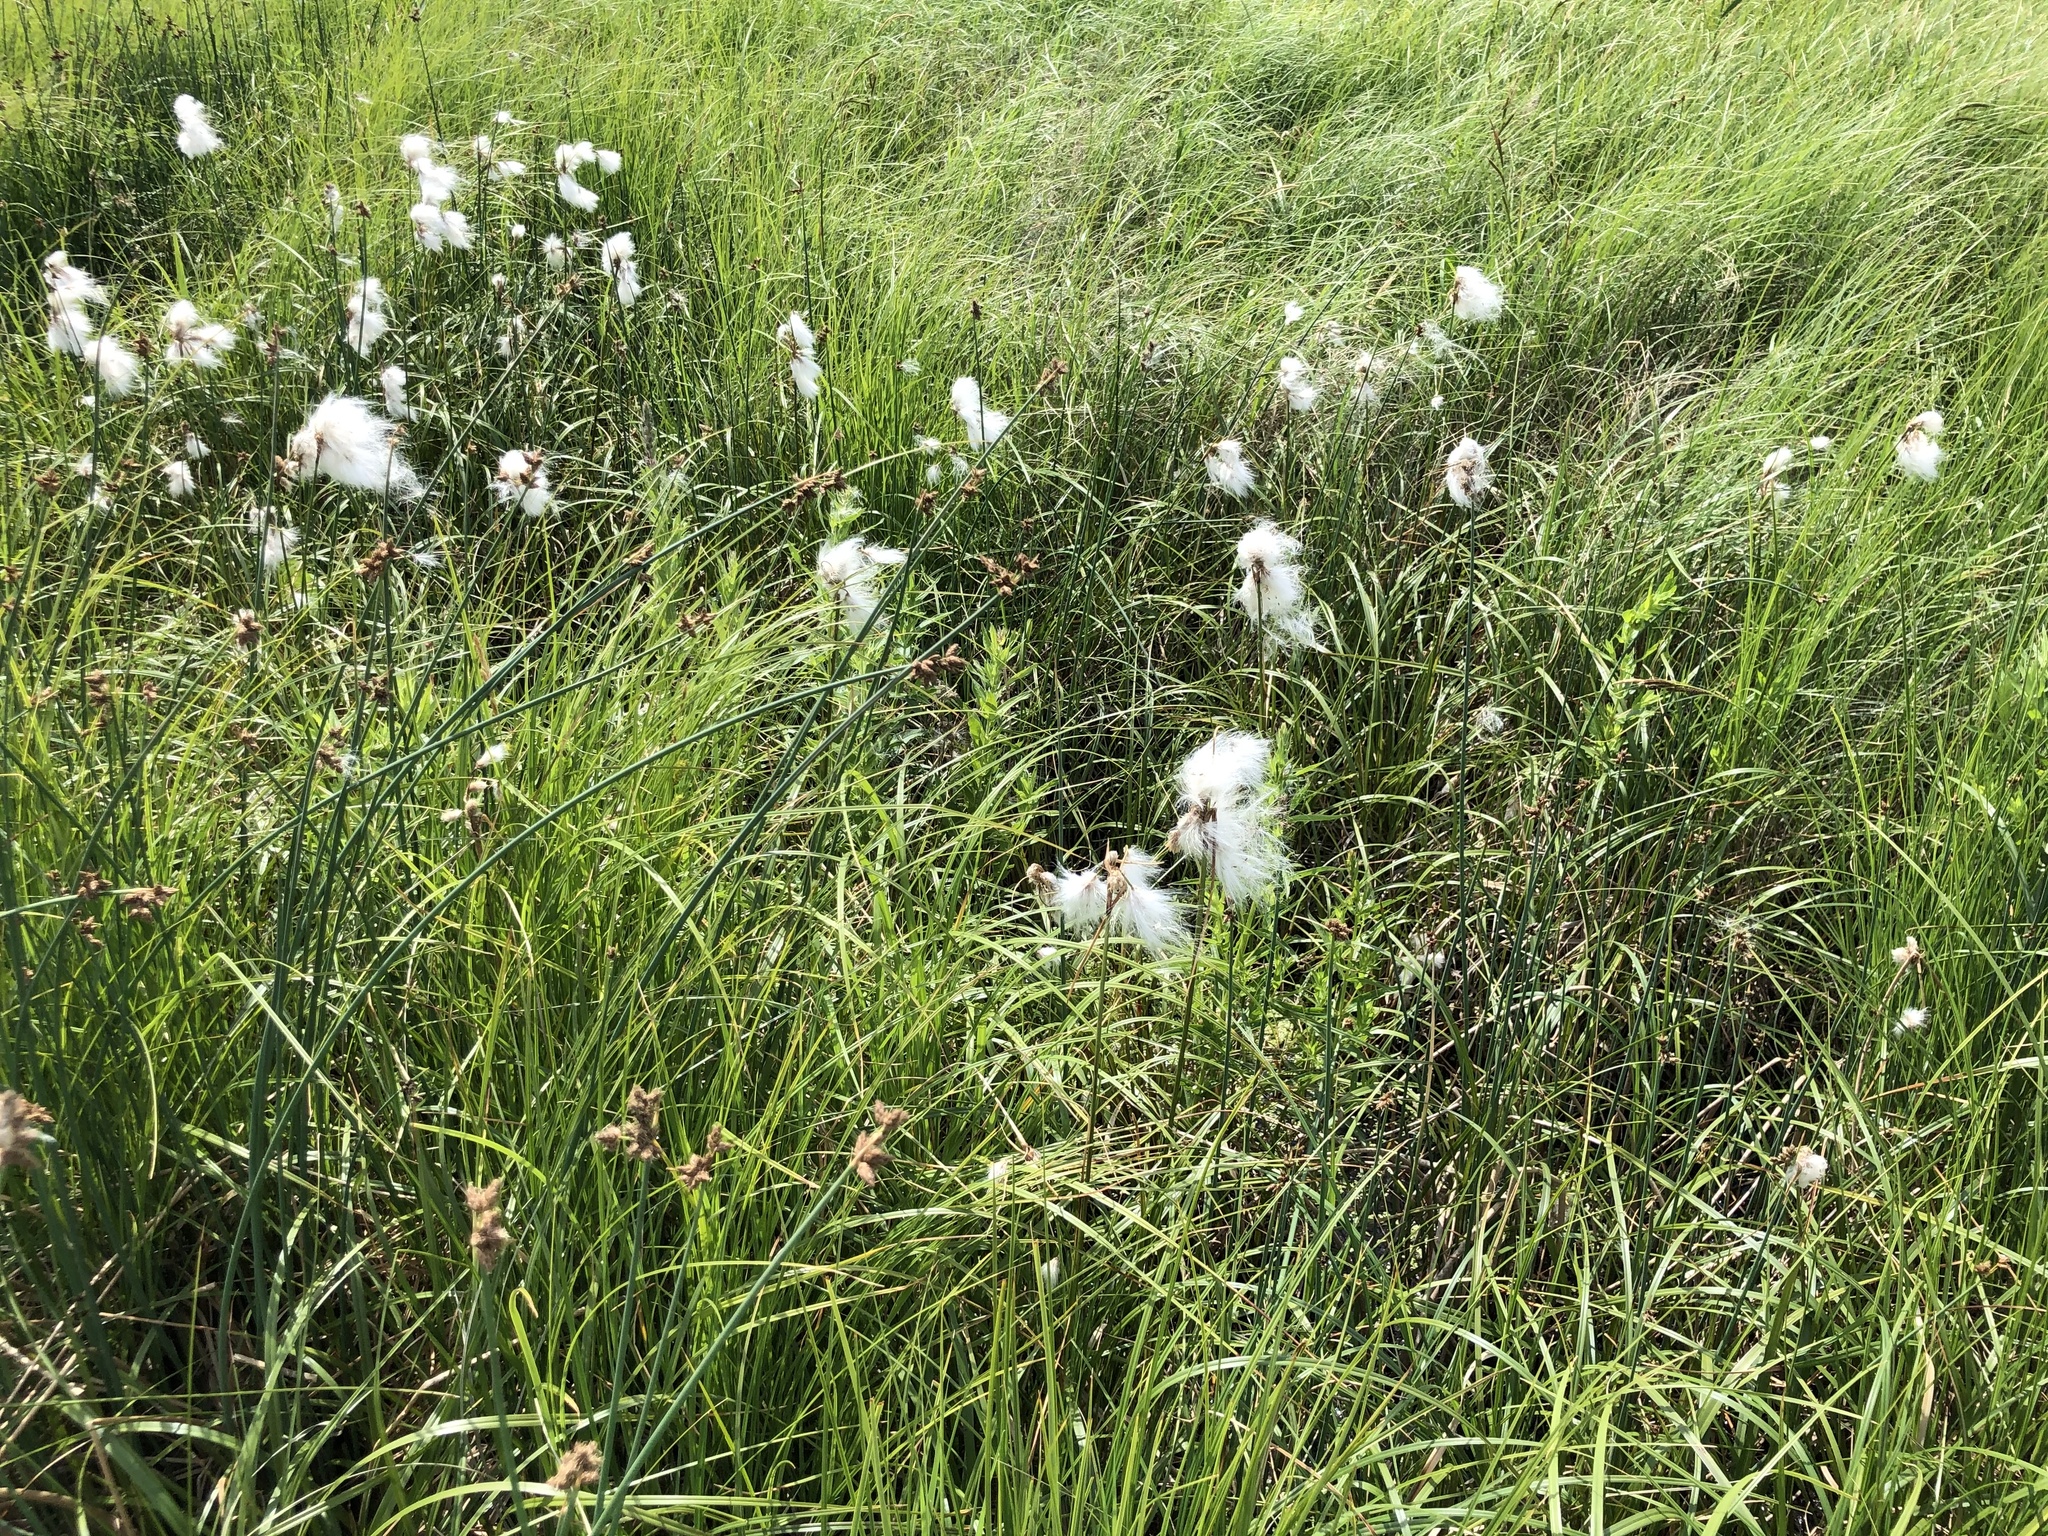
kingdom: Plantae
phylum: Tracheophyta
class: Liliopsida
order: Poales
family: Cyperaceae
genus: Eriophorum
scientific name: Eriophorum angustifolium
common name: Common cottongrass
